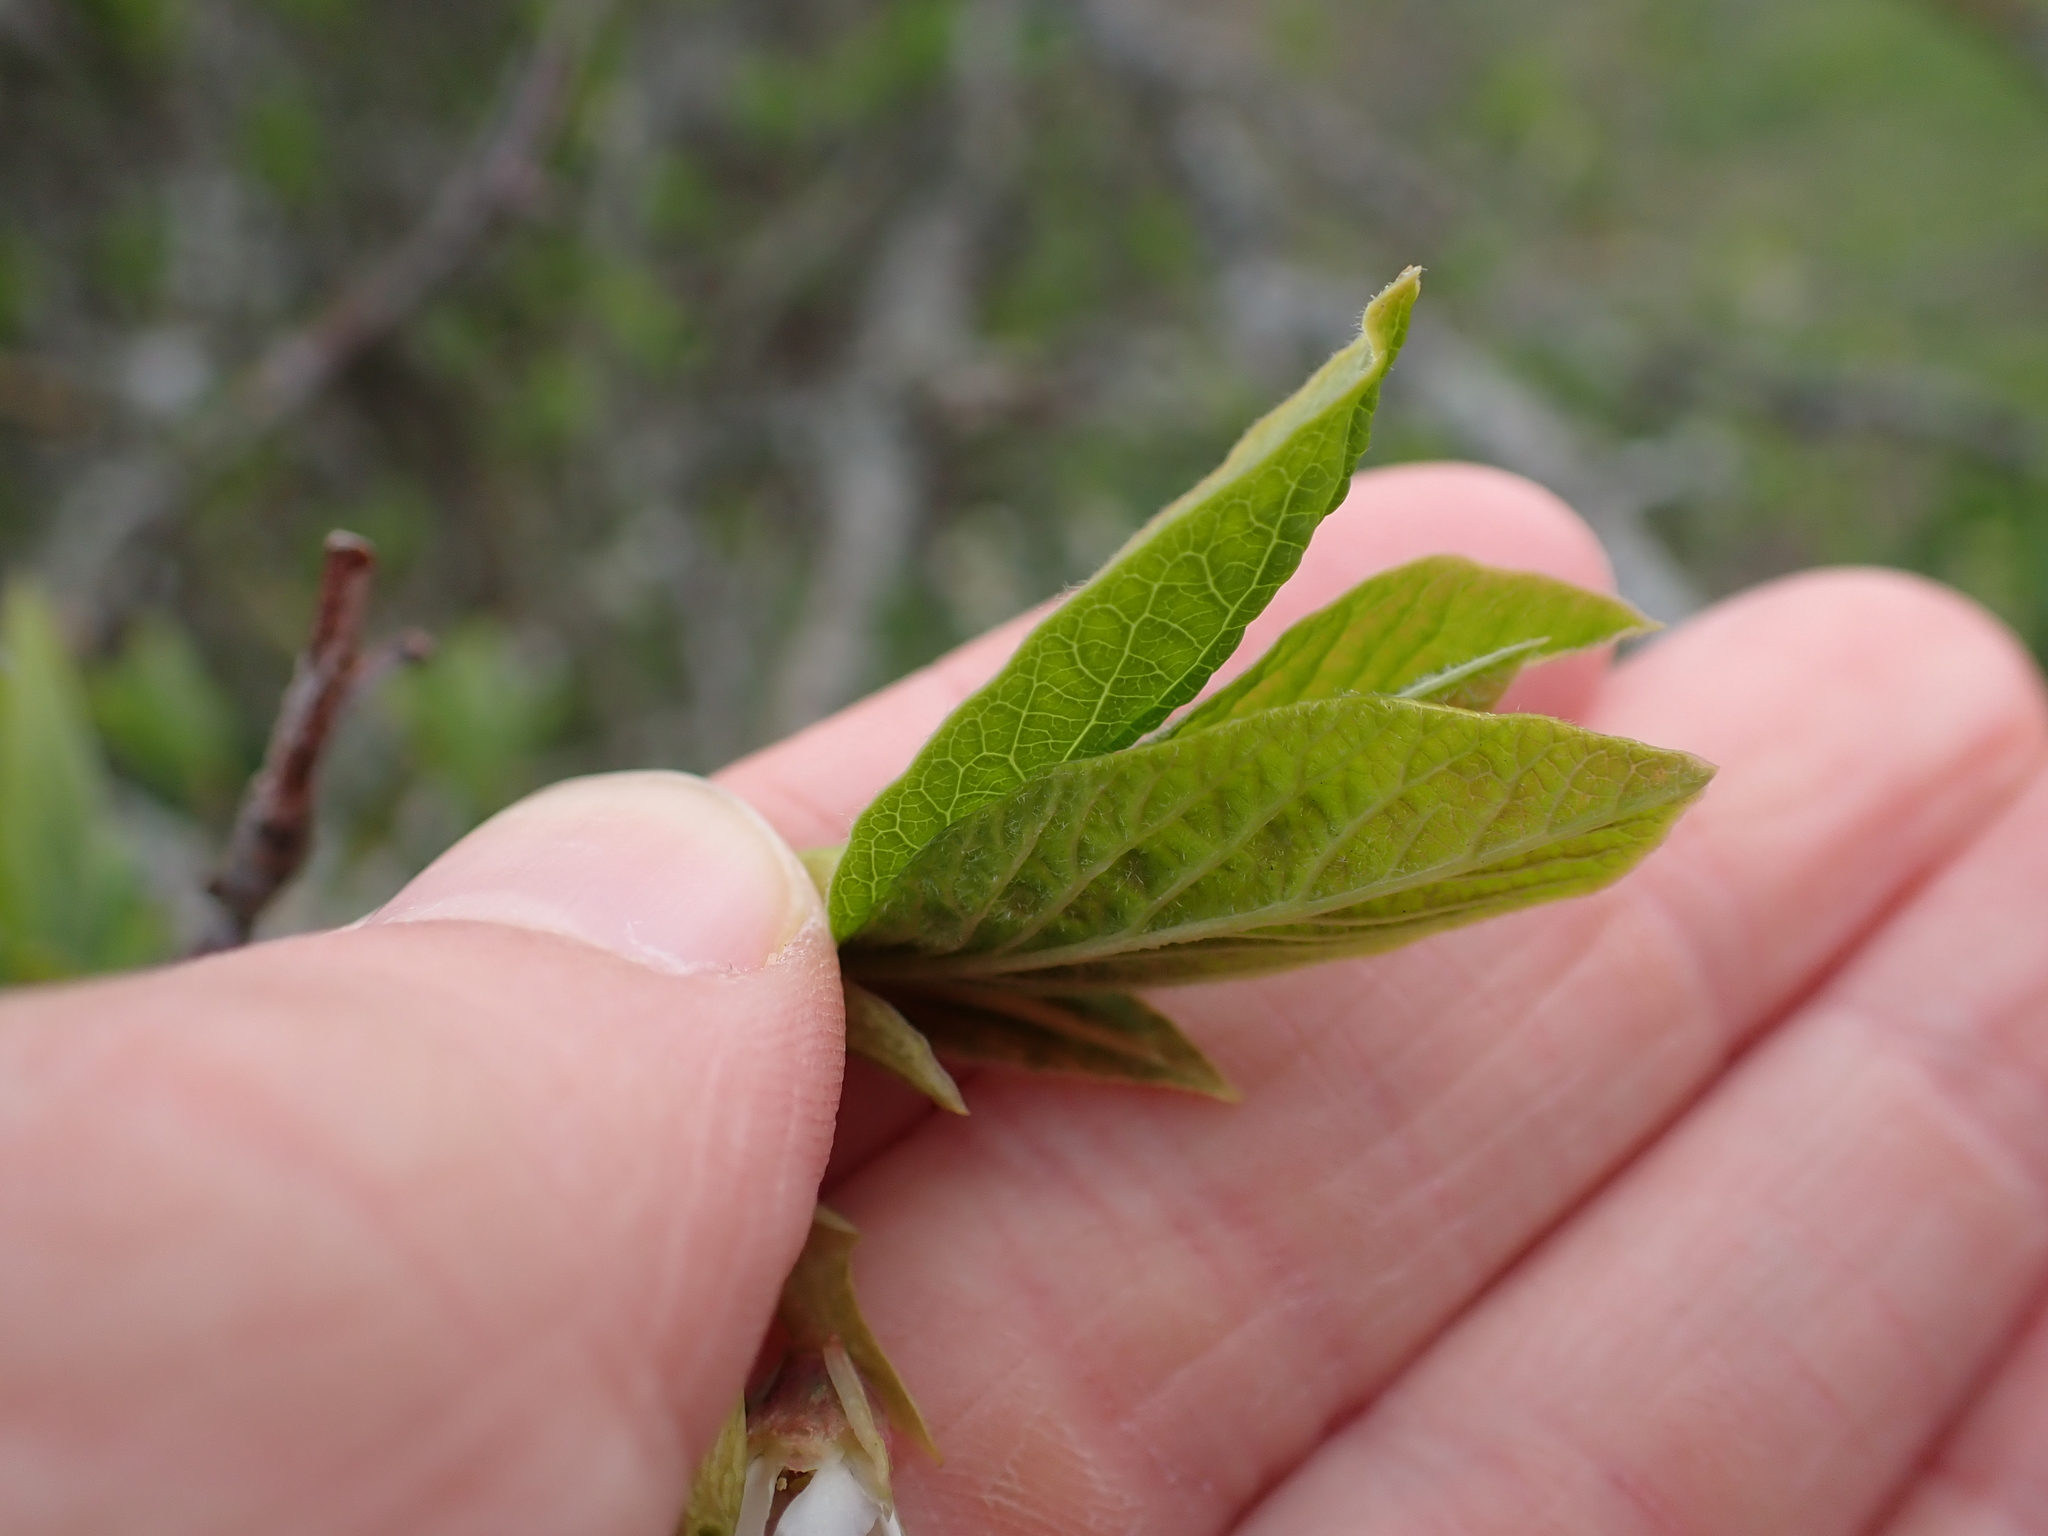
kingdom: Plantae
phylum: Tracheophyta
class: Magnoliopsida
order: Rosales
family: Rosaceae
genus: Oemleria
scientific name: Oemleria cerasiformis
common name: Osoberry
